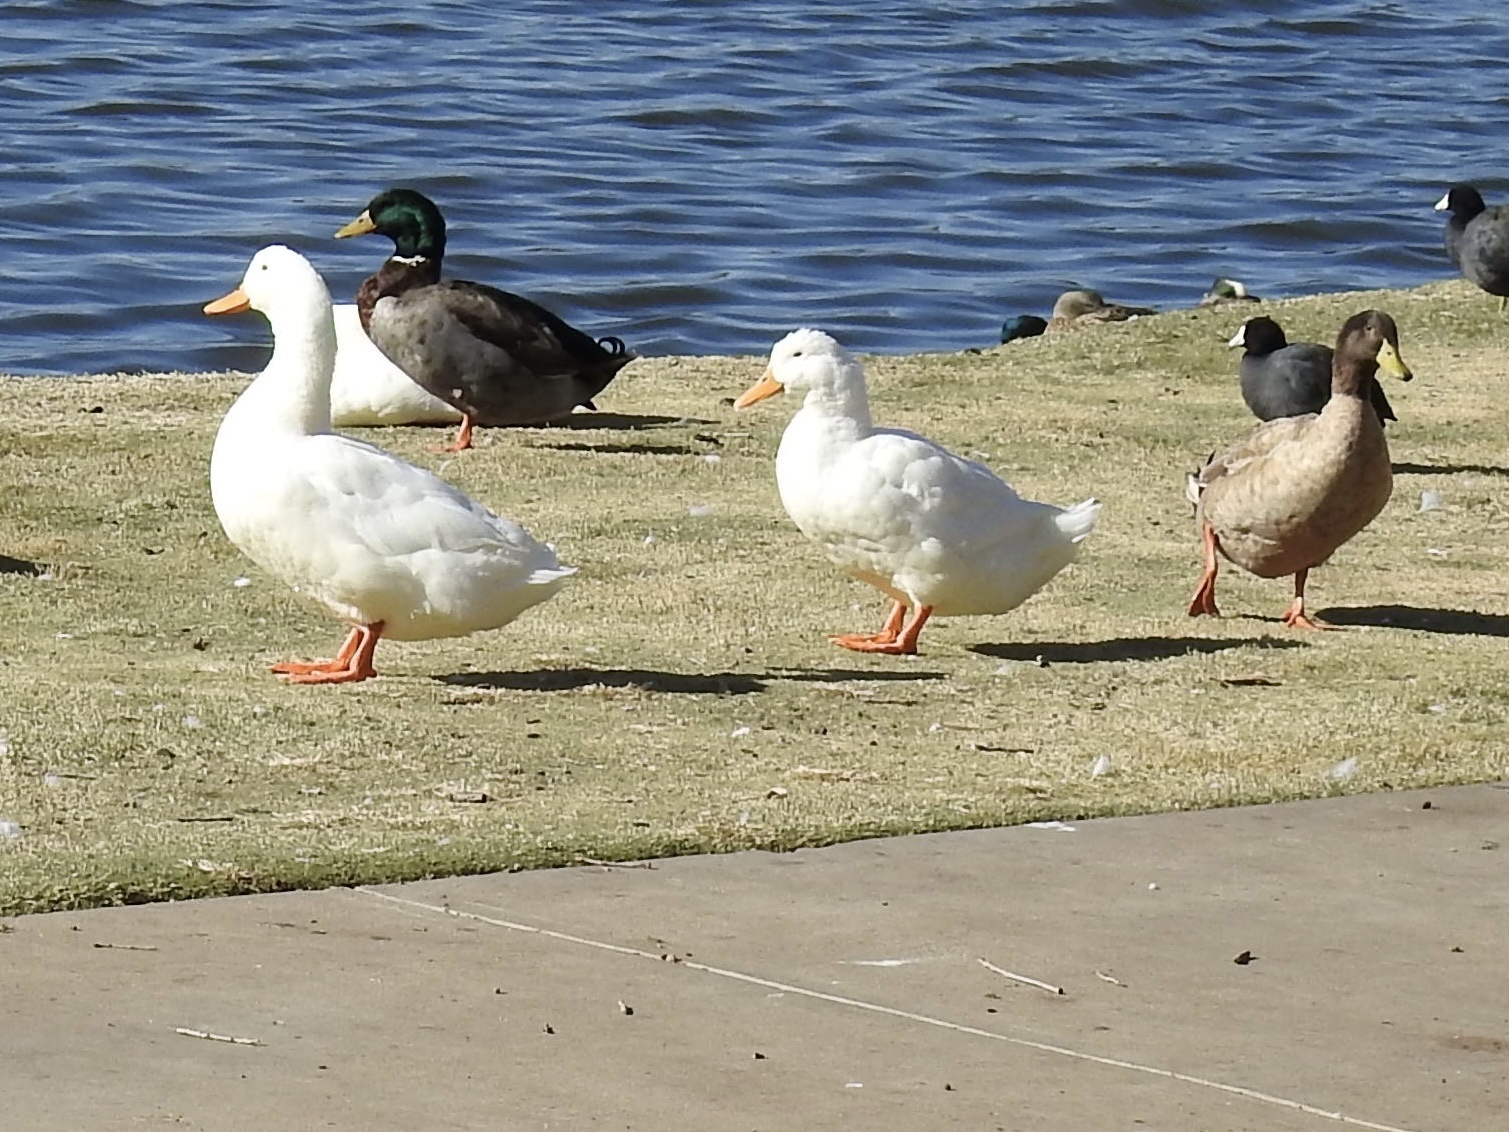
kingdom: Animalia
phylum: Chordata
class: Aves
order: Anseriformes
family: Anatidae
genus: Anas
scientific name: Anas platyrhynchos
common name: Mallard
